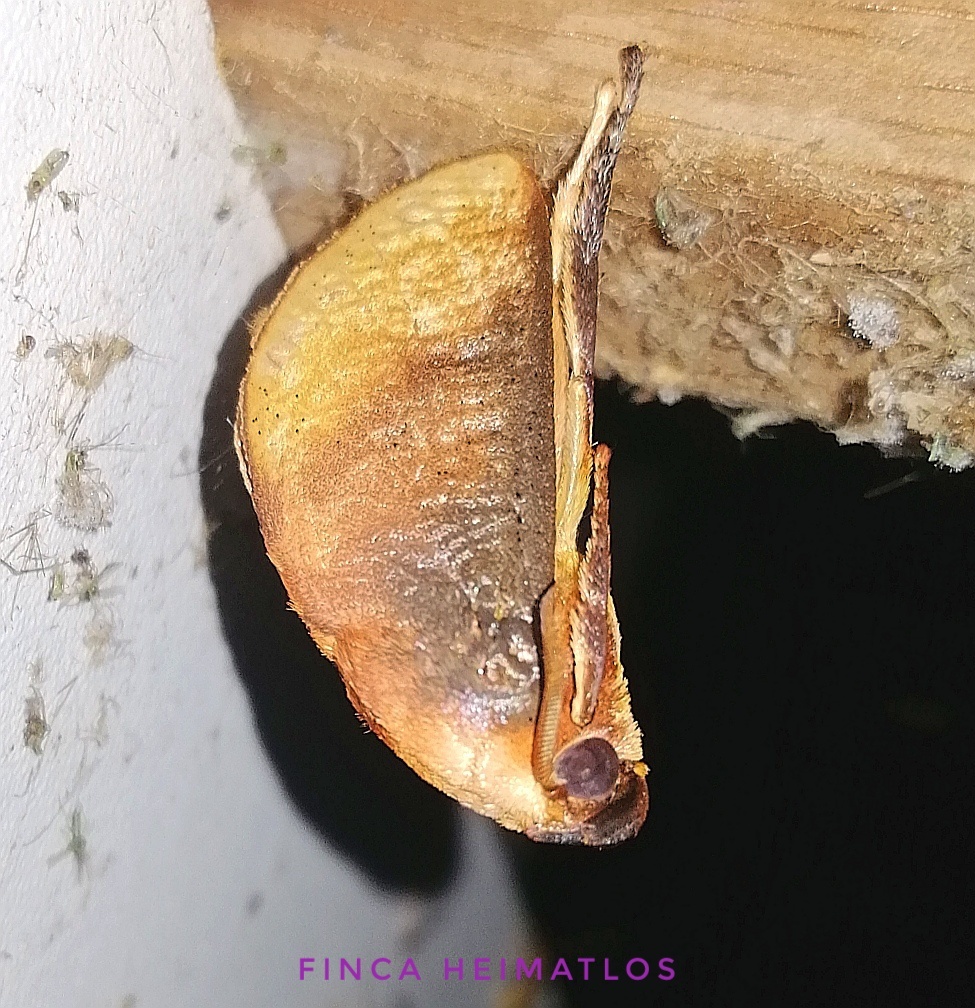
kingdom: Animalia
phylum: Arthropoda
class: Insecta
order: Lepidoptera
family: Limacodidae
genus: Ulamia
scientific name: Ulamia sericea
